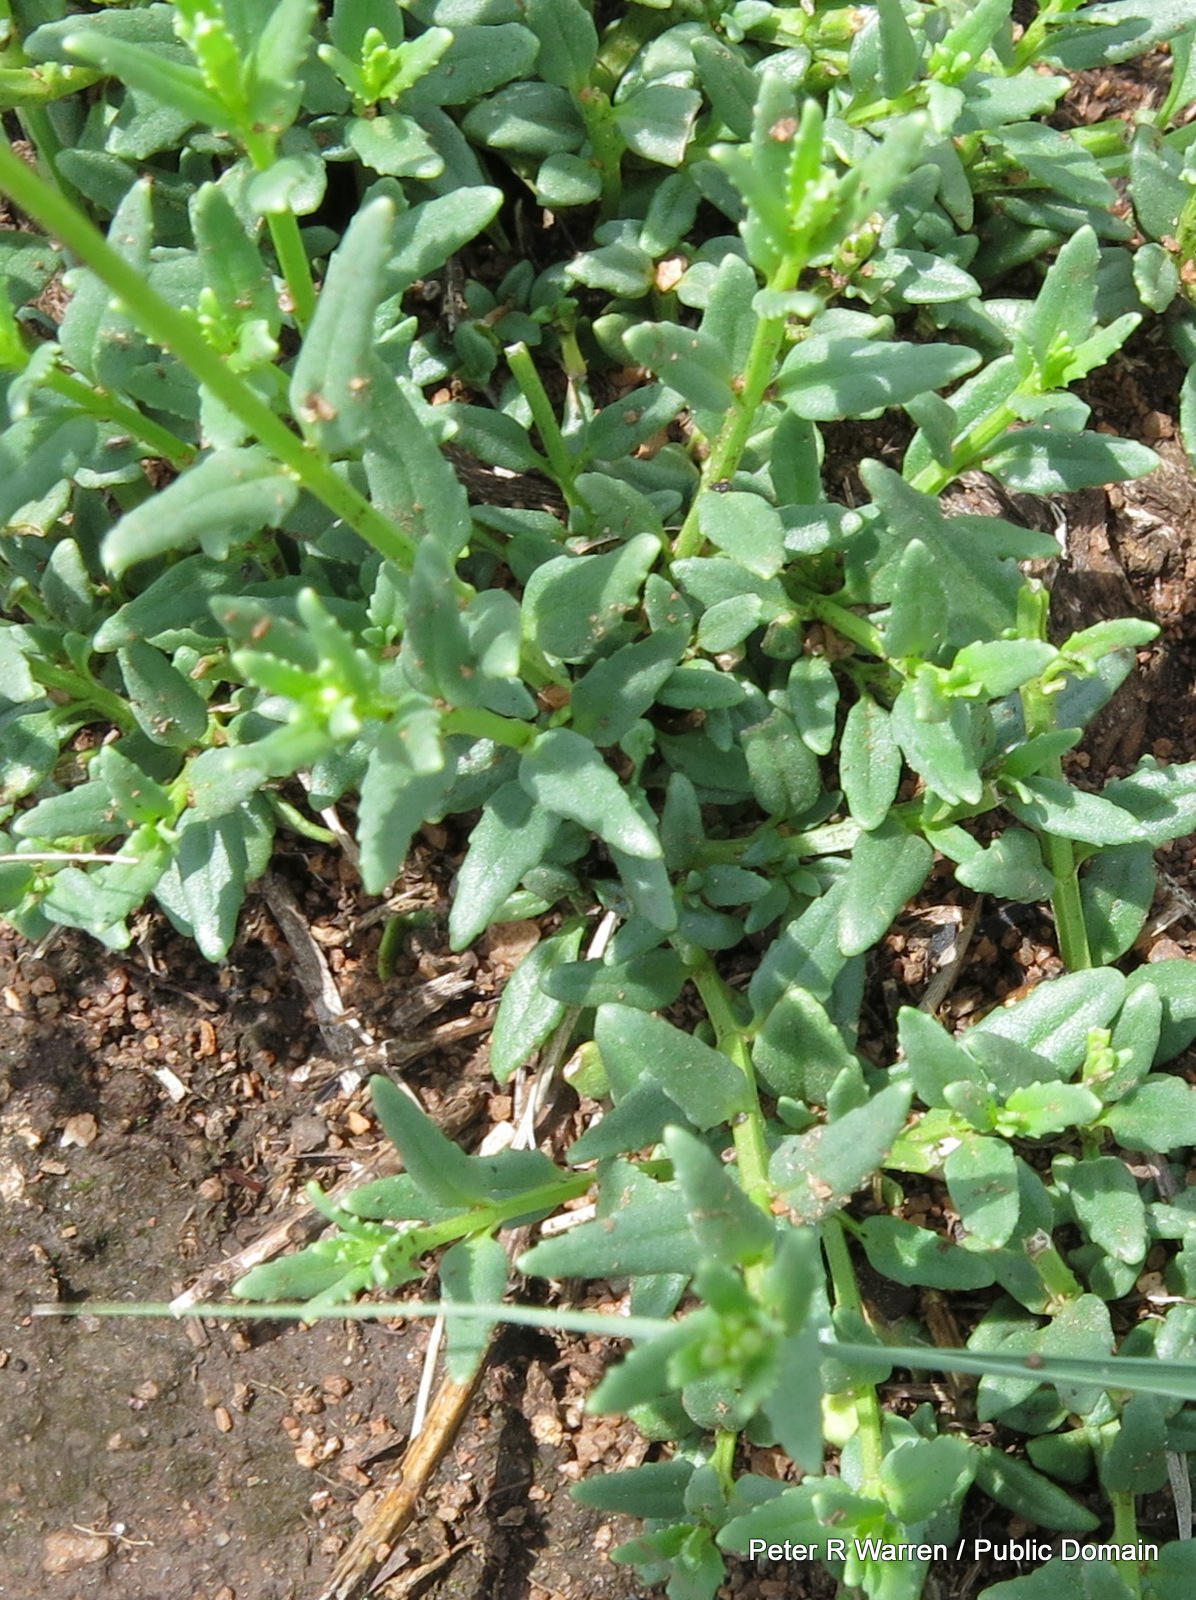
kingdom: Plantae
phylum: Tracheophyta
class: Magnoliopsida
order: Lamiales
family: Scrophulariaceae
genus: Nemesia
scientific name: Nemesia fruticans
